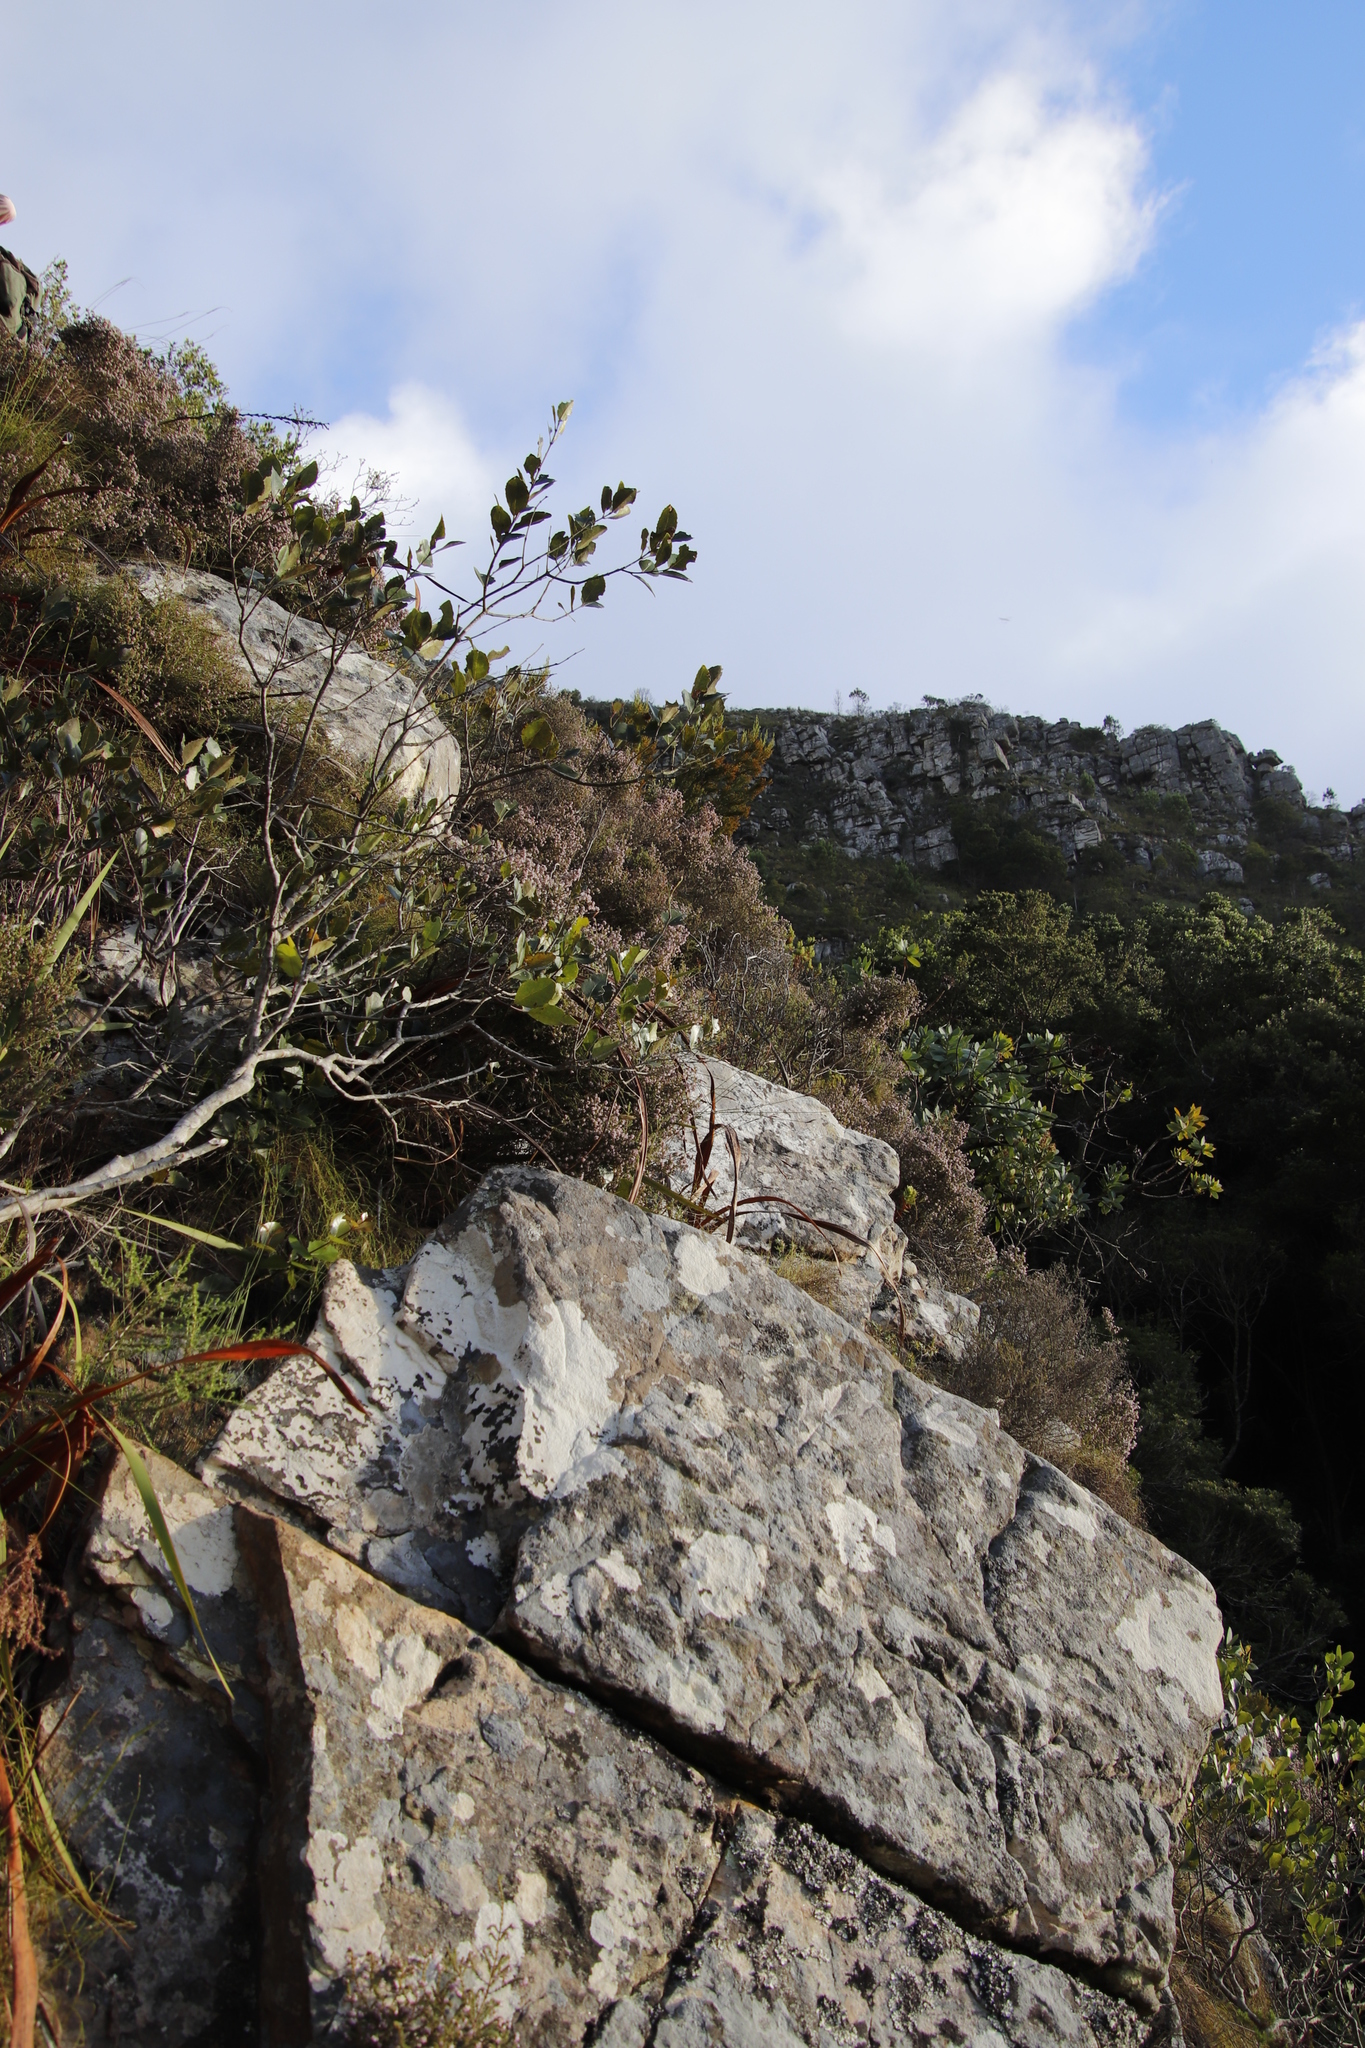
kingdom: Plantae
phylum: Tracheophyta
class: Magnoliopsida
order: Ericales
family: Ericaceae
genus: Erica
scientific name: Erica ericoides
